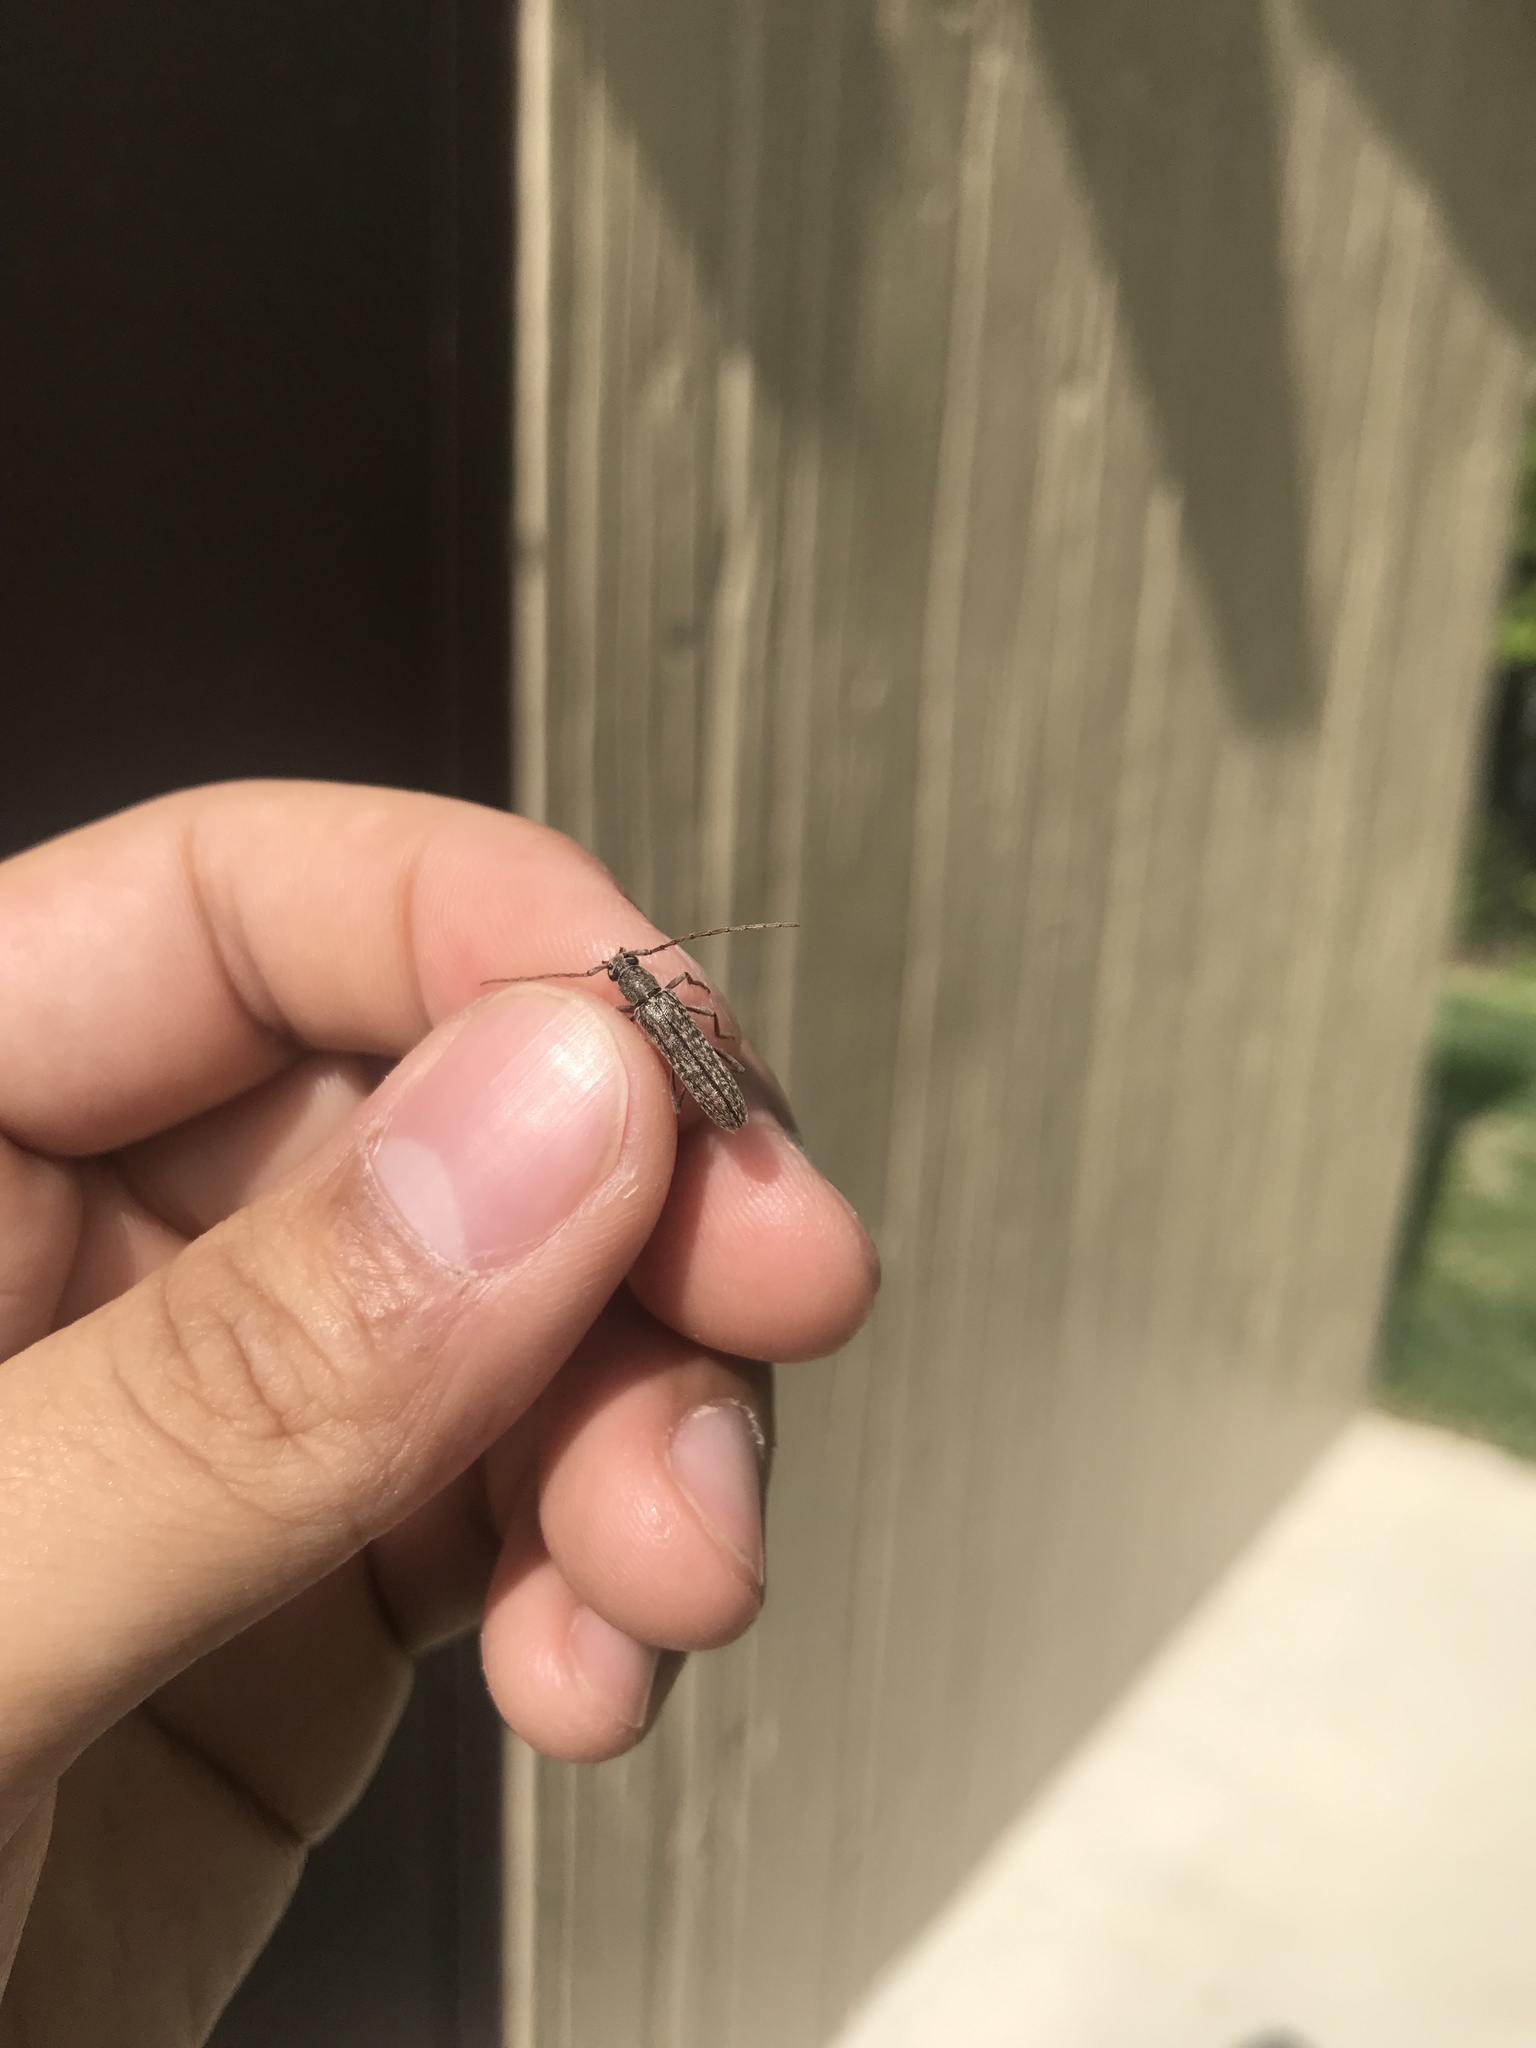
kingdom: Animalia
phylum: Arthropoda
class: Insecta
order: Coleoptera
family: Cerambycidae
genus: Anelaphus
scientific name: Anelaphus villosus
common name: Twig pruner
